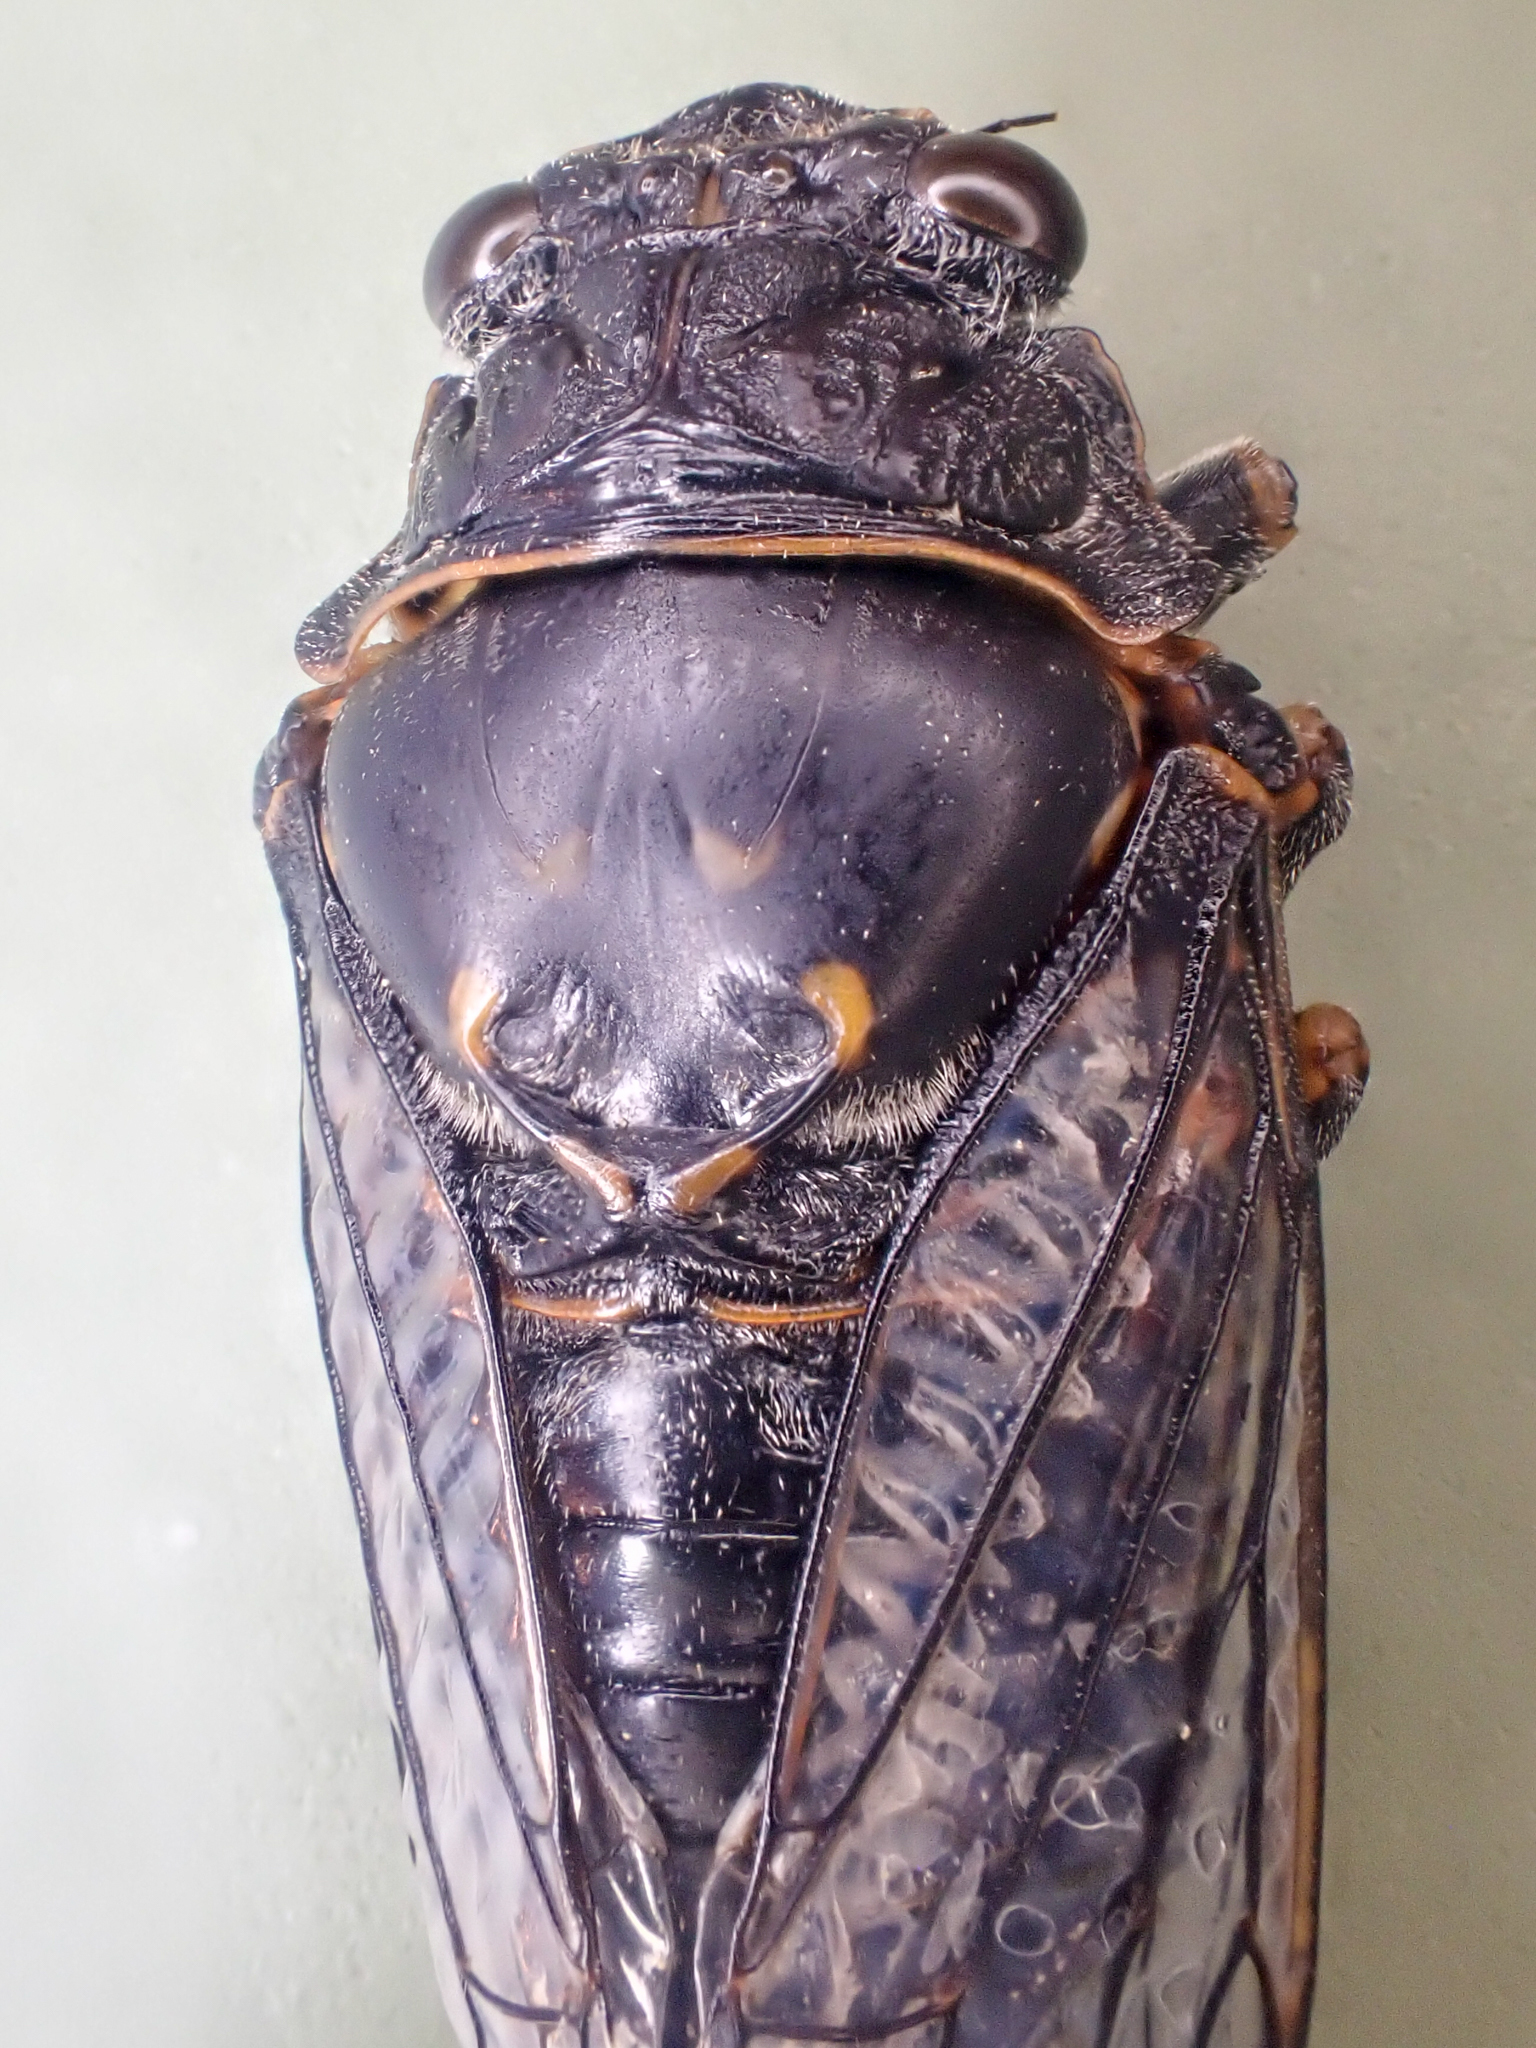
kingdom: Animalia
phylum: Arthropoda
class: Insecta
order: Hemiptera
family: Cicadidae
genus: Okanagana
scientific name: Okanagana occidentalis
